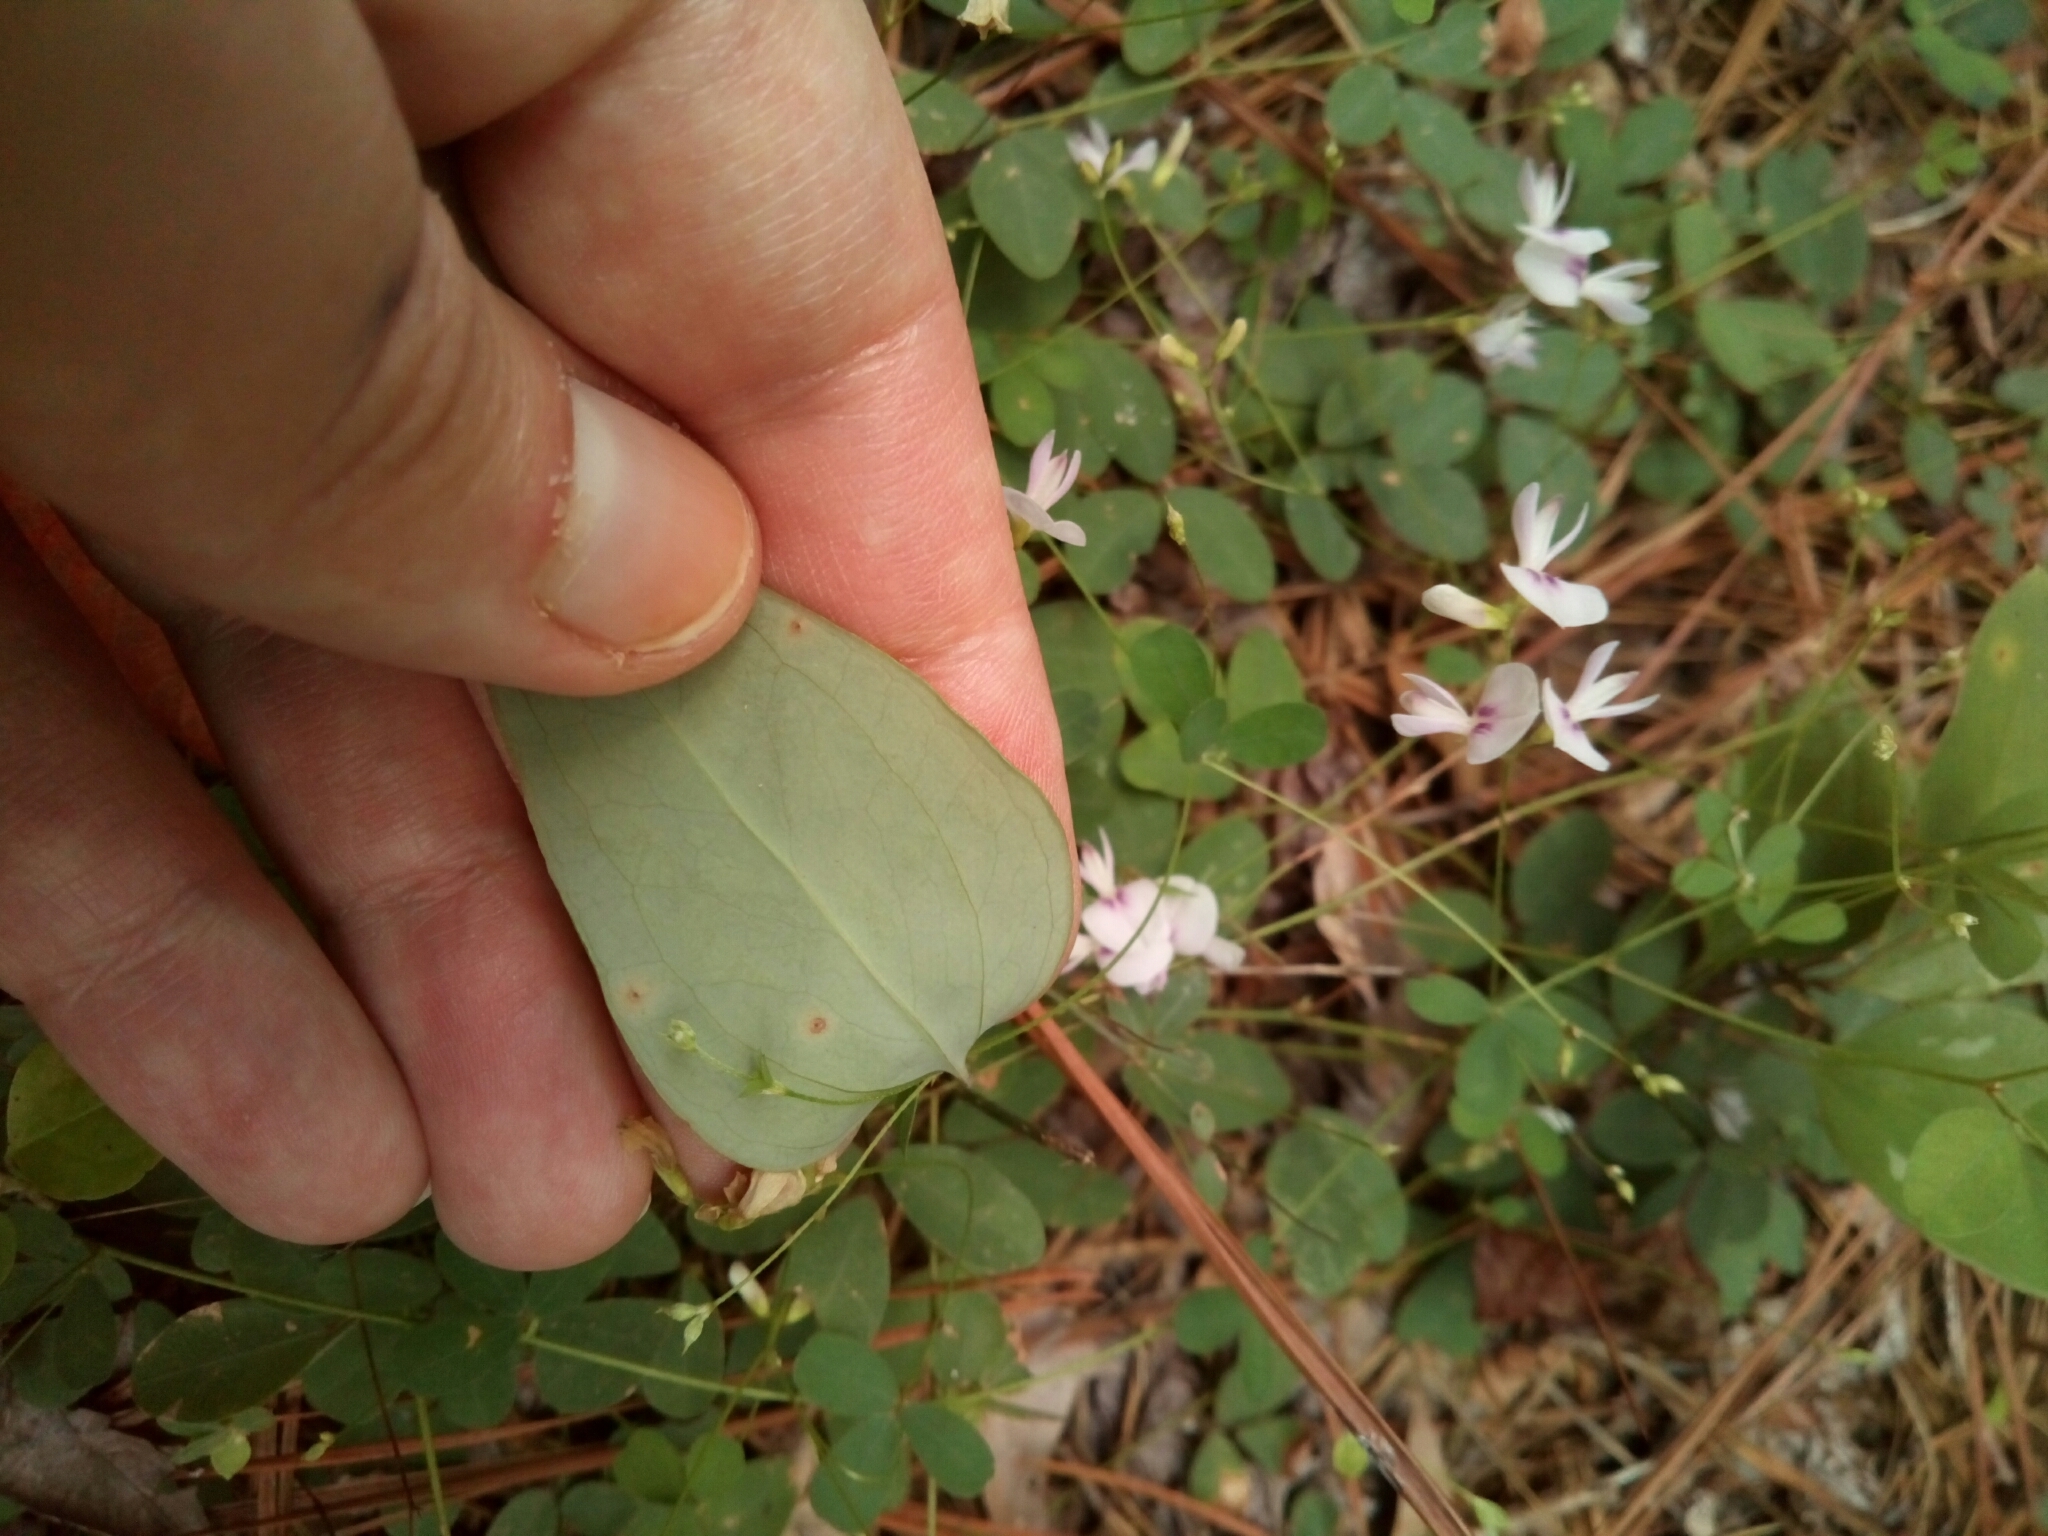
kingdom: Plantae
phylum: Tracheophyta
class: Liliopsida
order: Liliales
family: Smilacaceae
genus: Smilax
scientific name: Smilax glauca
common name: Cat greenbrier
